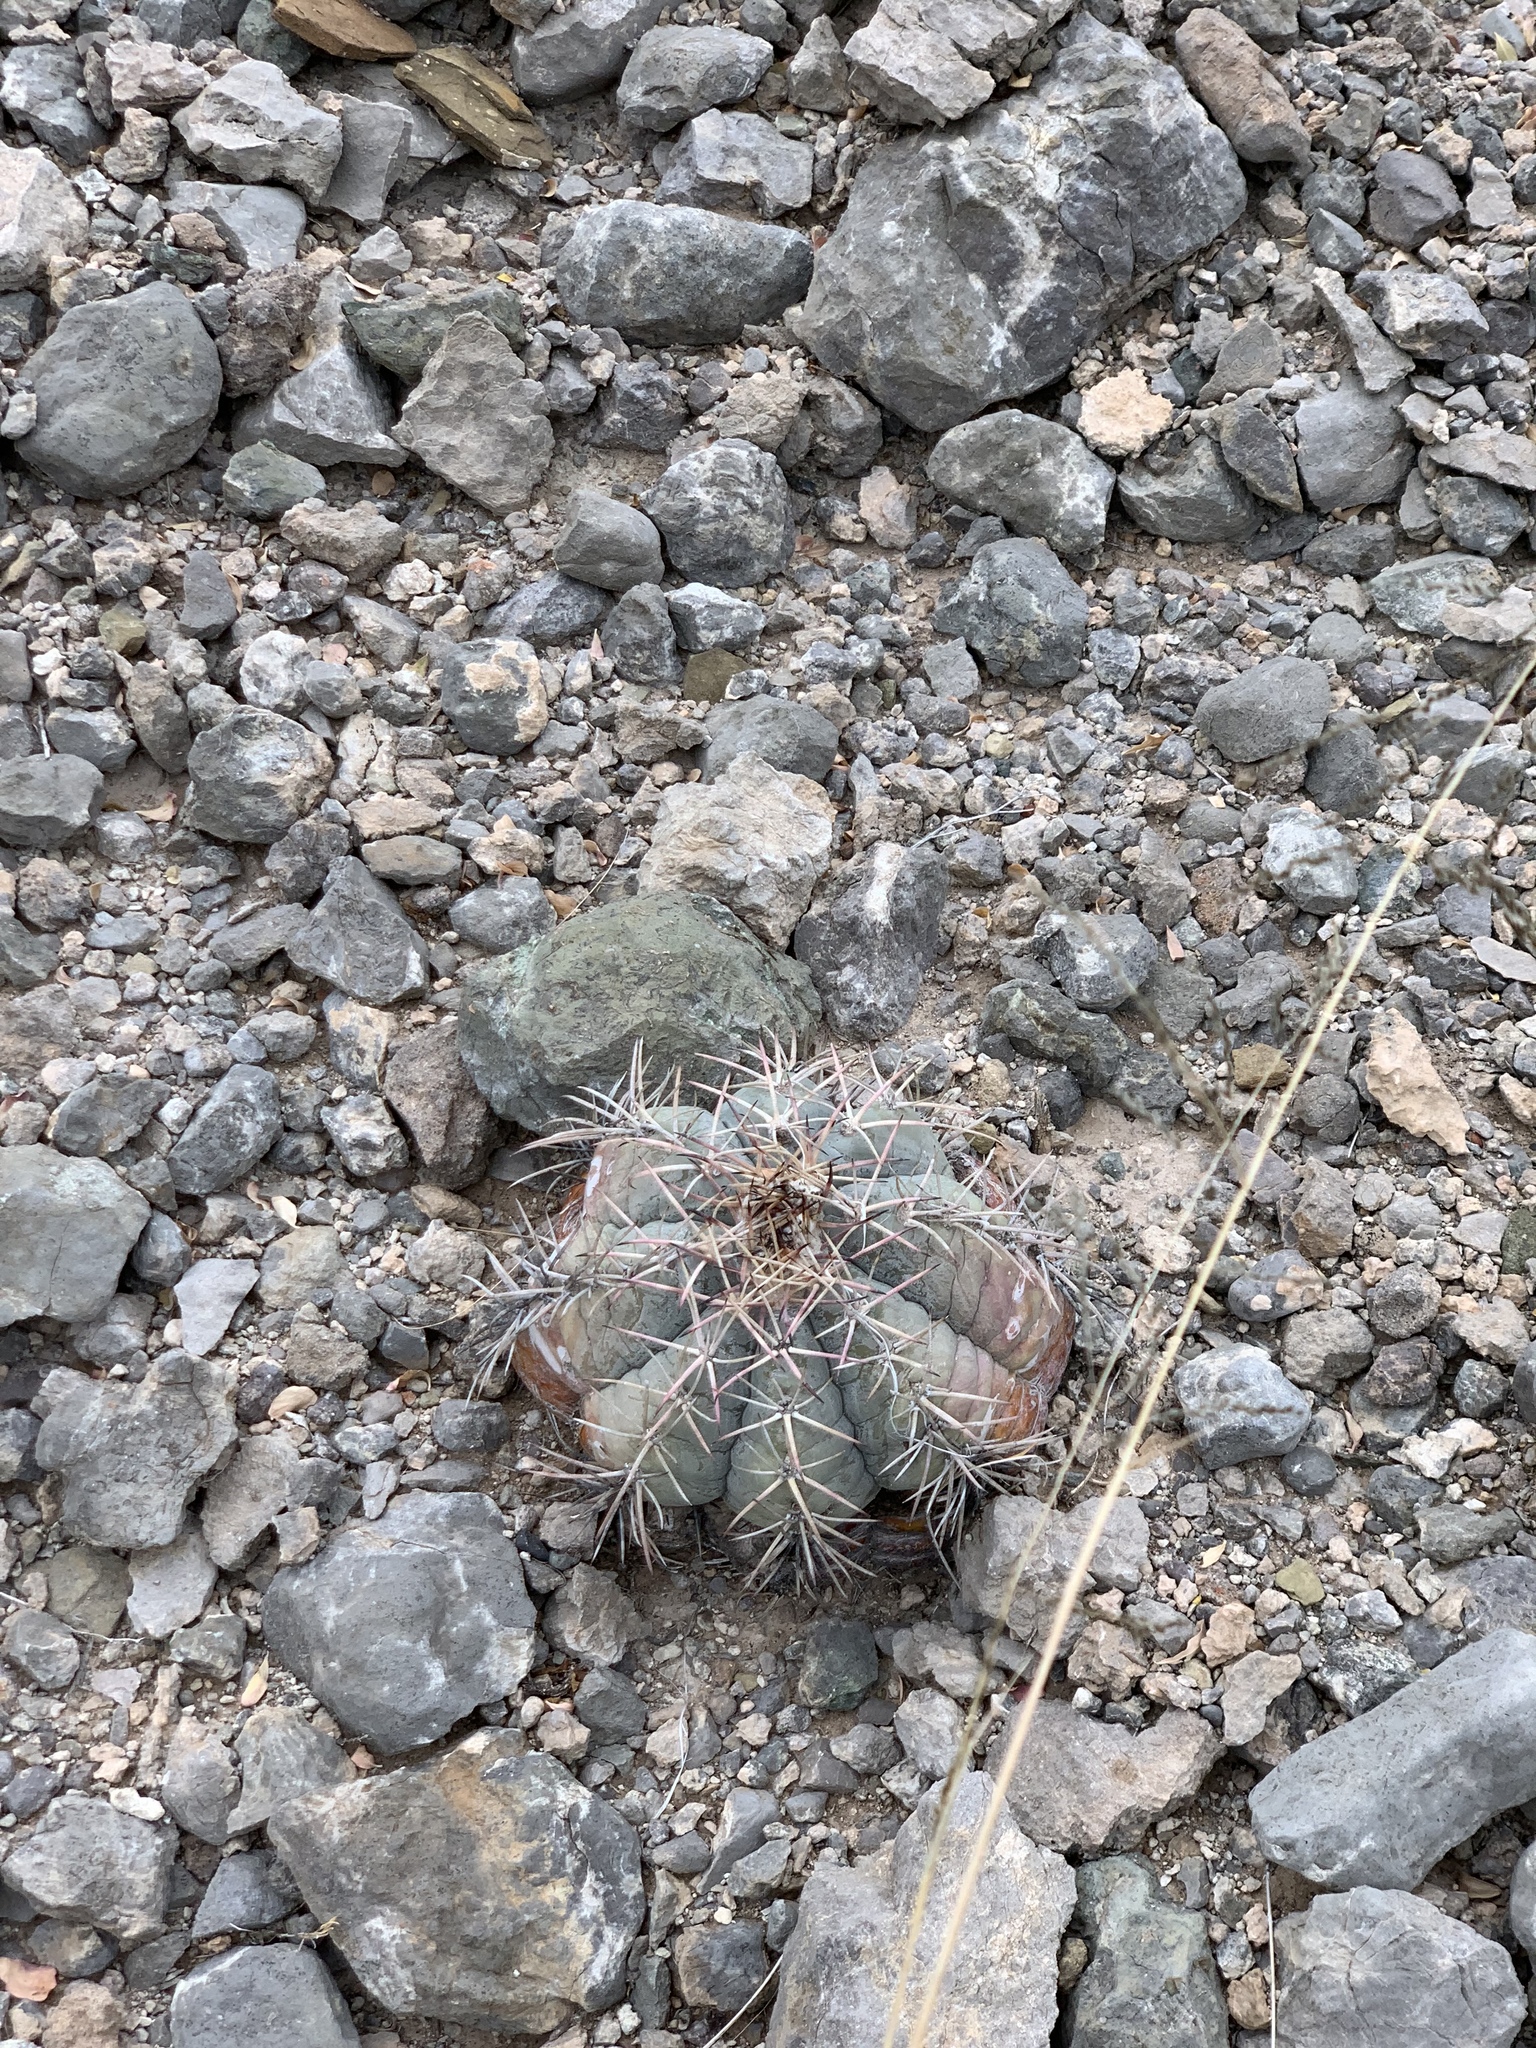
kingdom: Plantae
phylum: Tracheophyta
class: Magnoliopsida
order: Caryophyllales
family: Cactaceae
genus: Echinocactus
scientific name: Echinocactus horizonthalonius
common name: Devilshead
